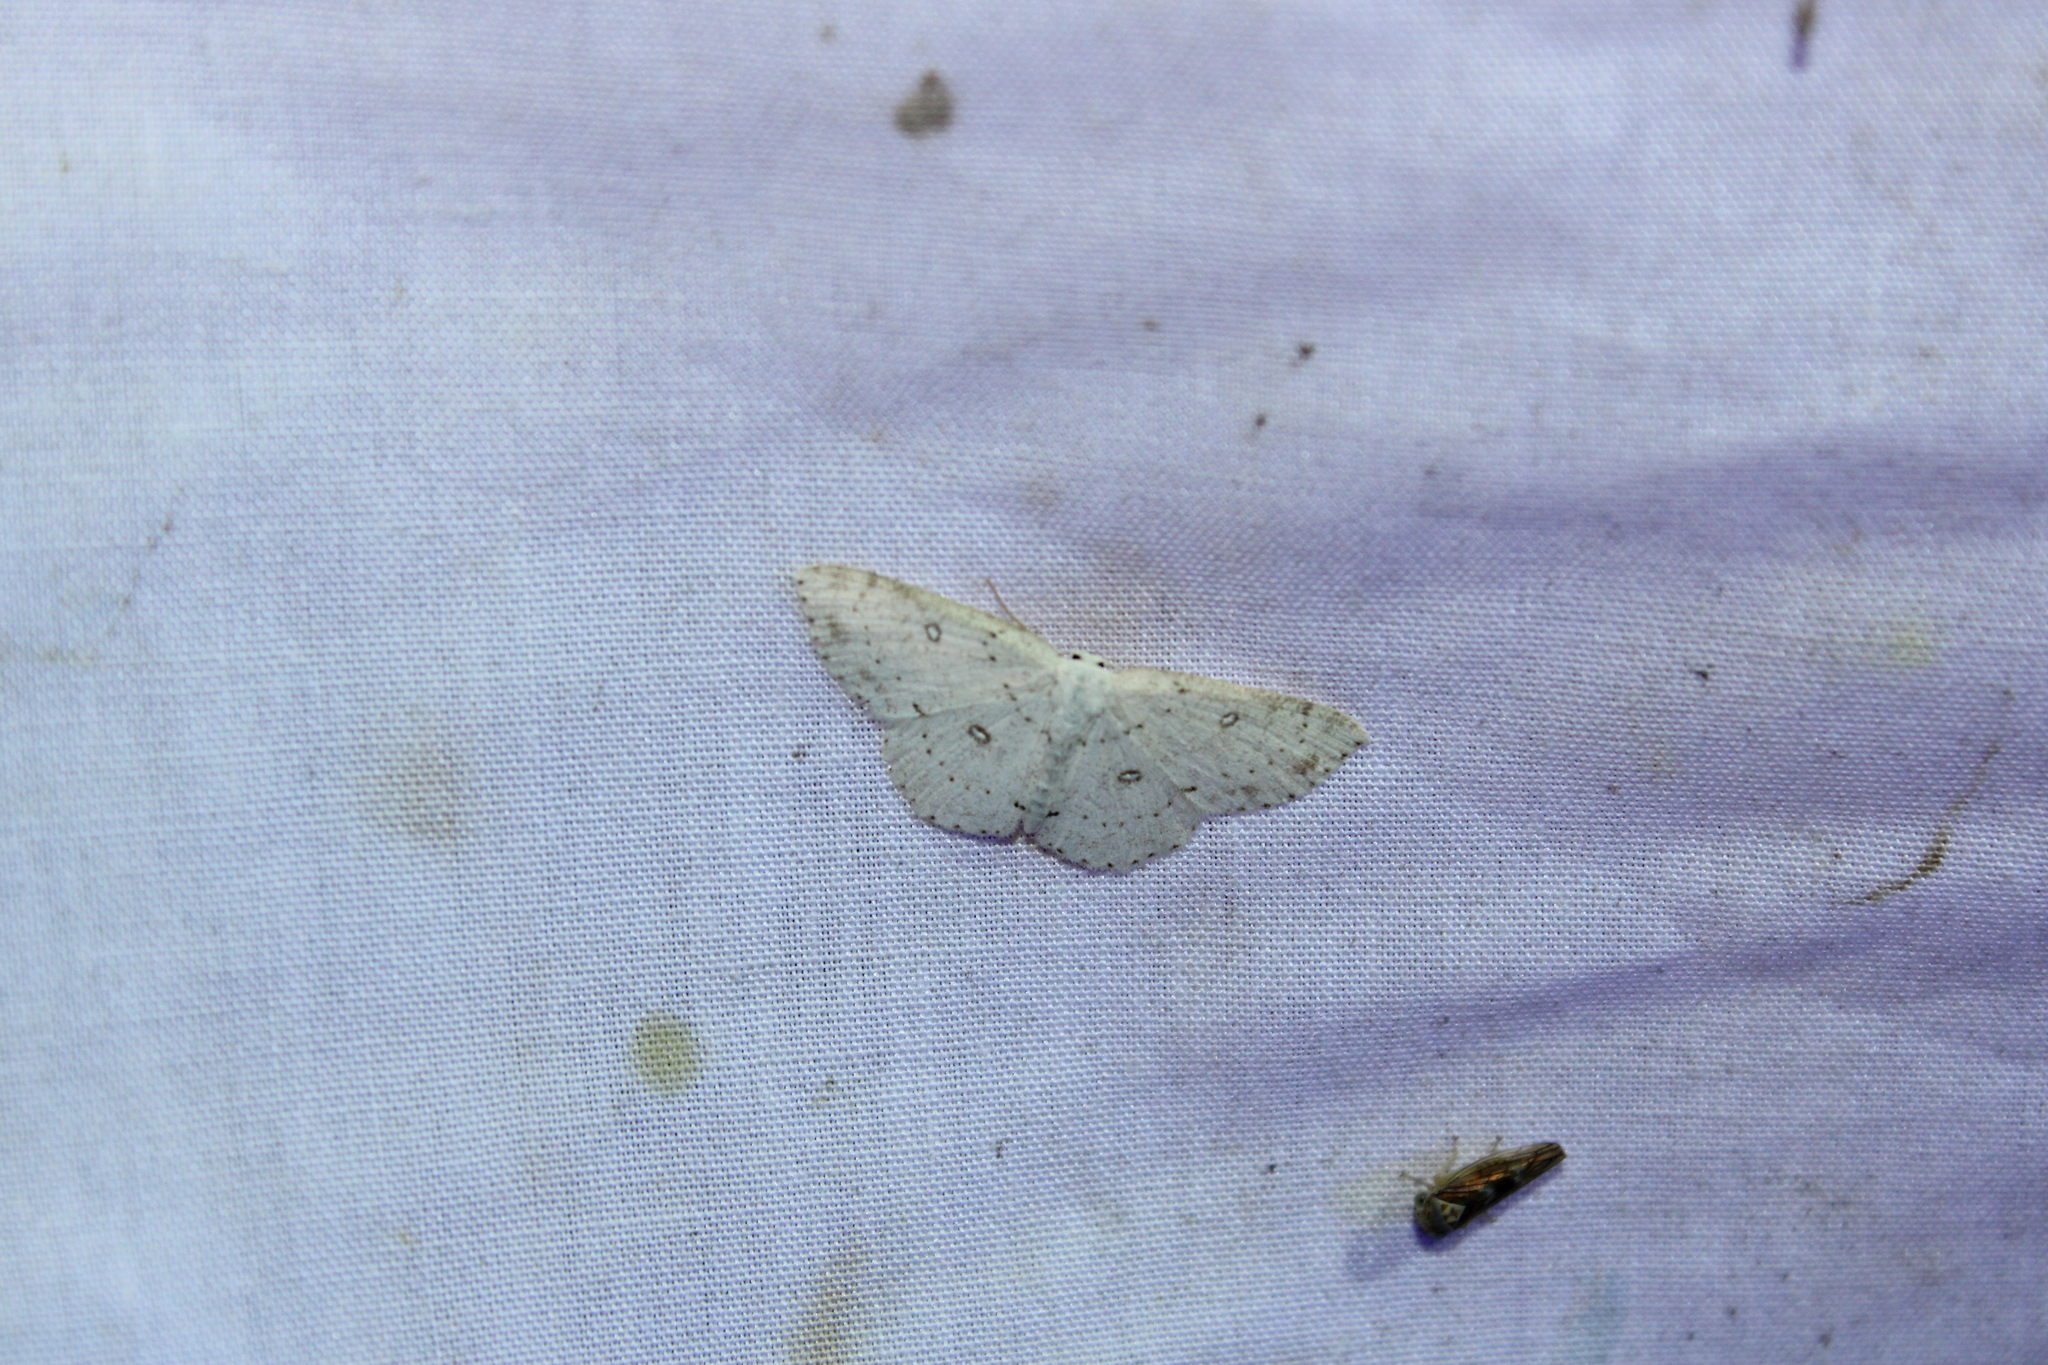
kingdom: Animalia
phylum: Arthropoda
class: Insecta
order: Lepidoptera
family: Geometridae
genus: Cyclophora
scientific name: Cyclophora pendulinaria
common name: Sweet fern geometer
